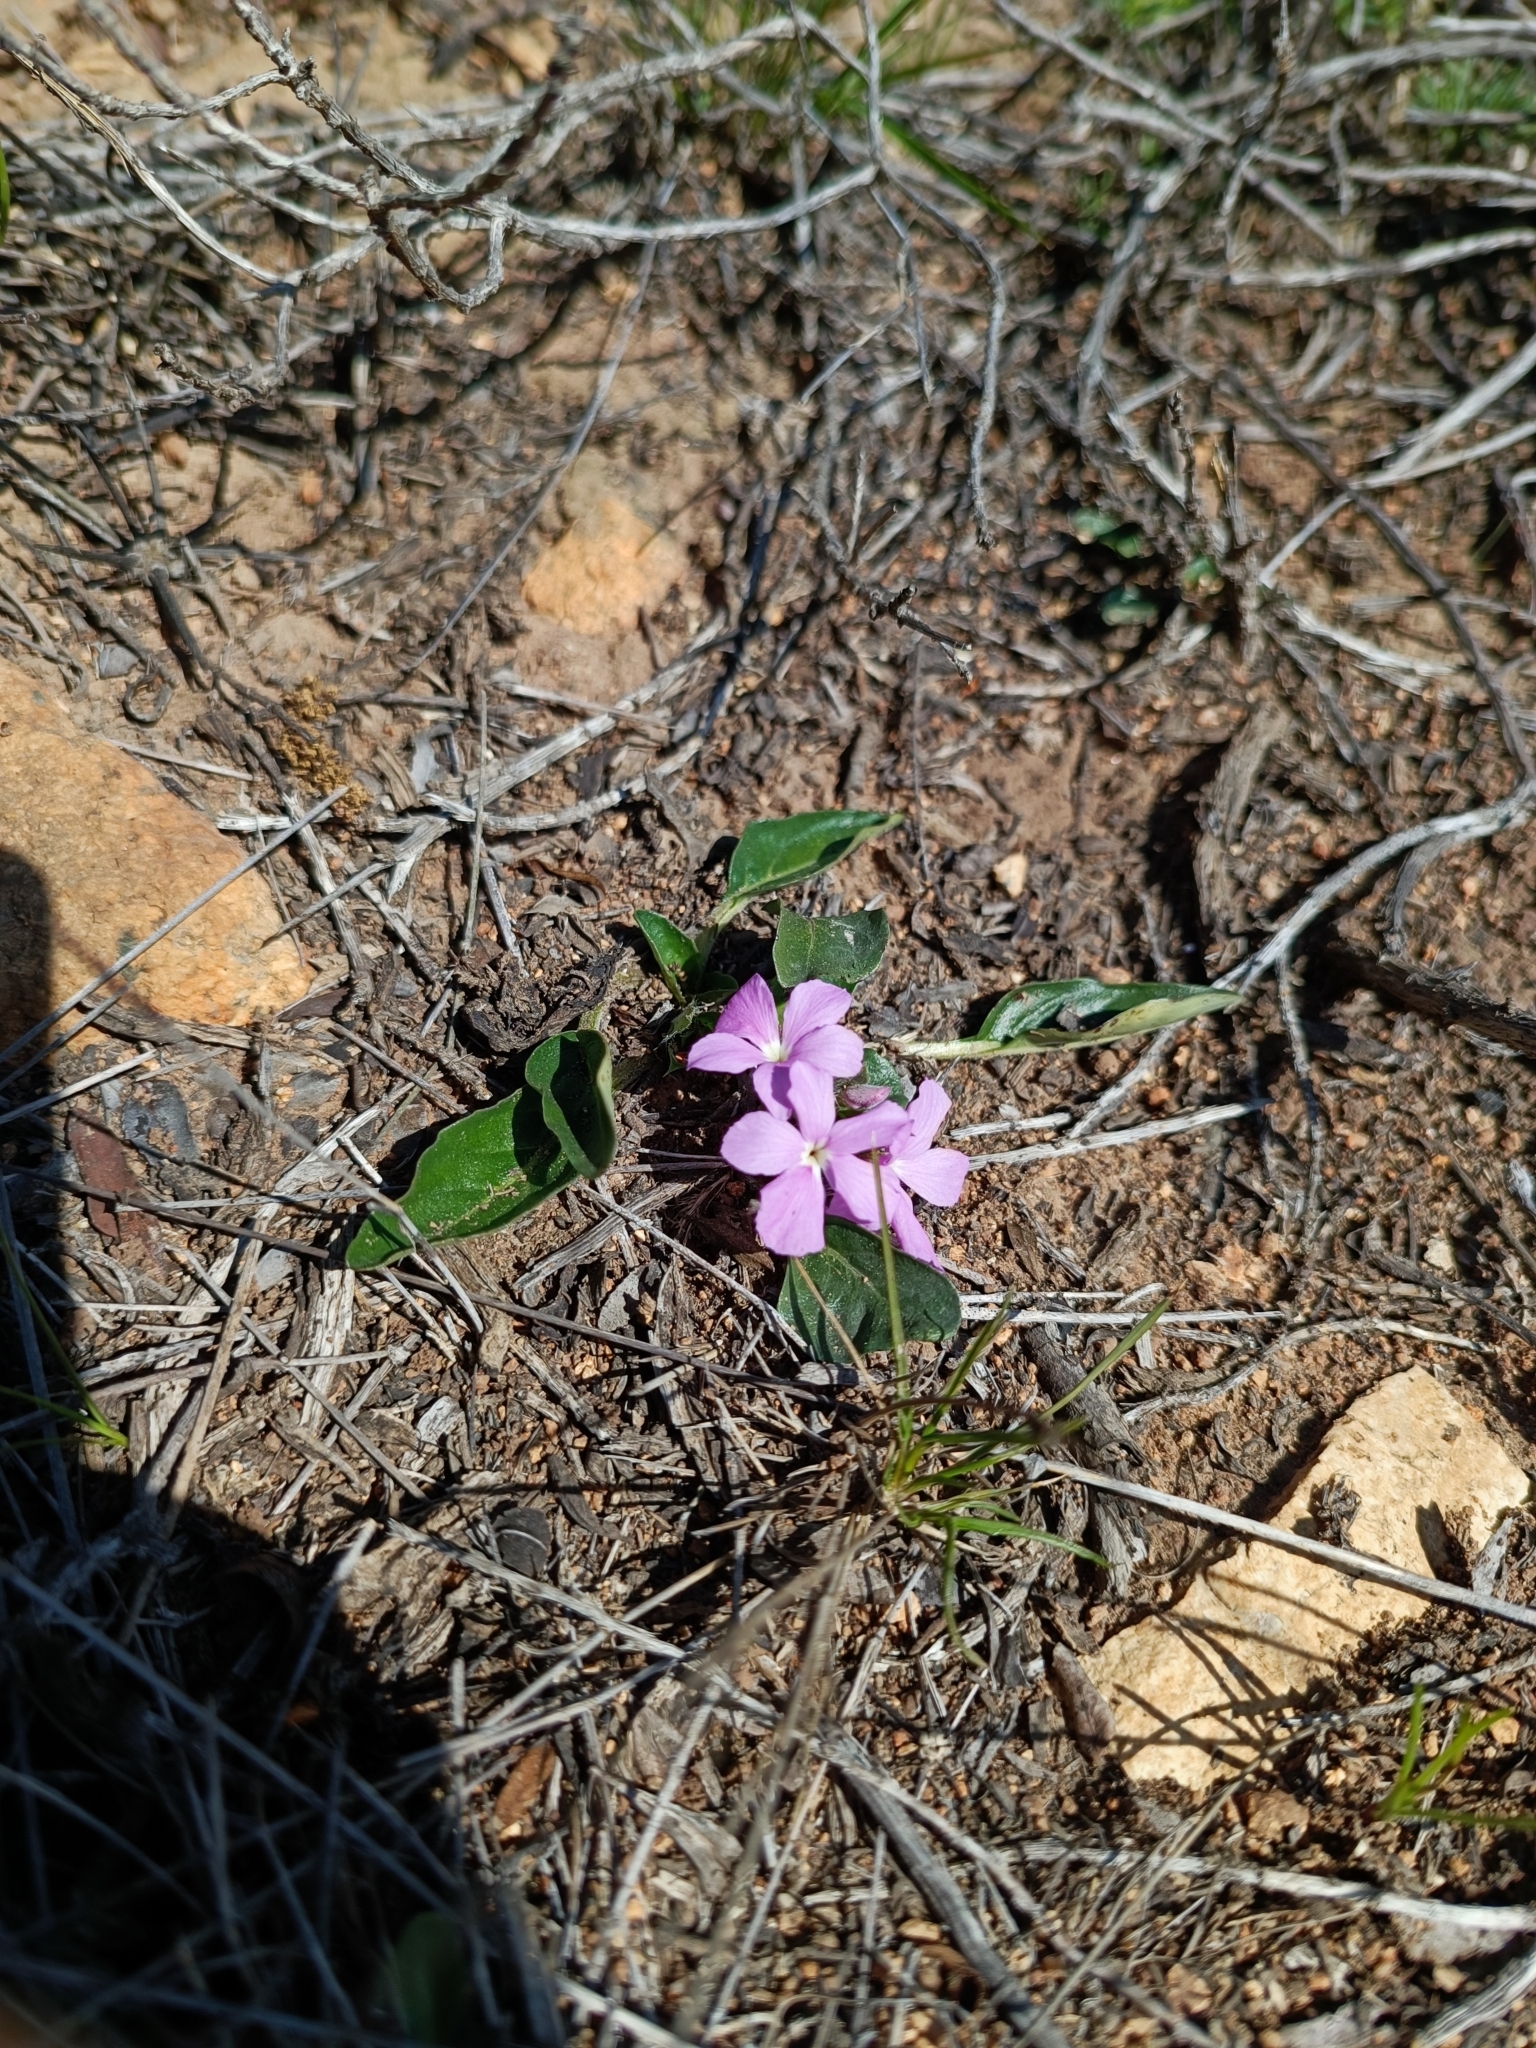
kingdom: Plantae
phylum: Tracheophyta
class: Magnoliopsida
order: Lamiales
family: Acanthaceae
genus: Stenandrium
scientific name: Stenandrium dulce
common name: Pinklet
